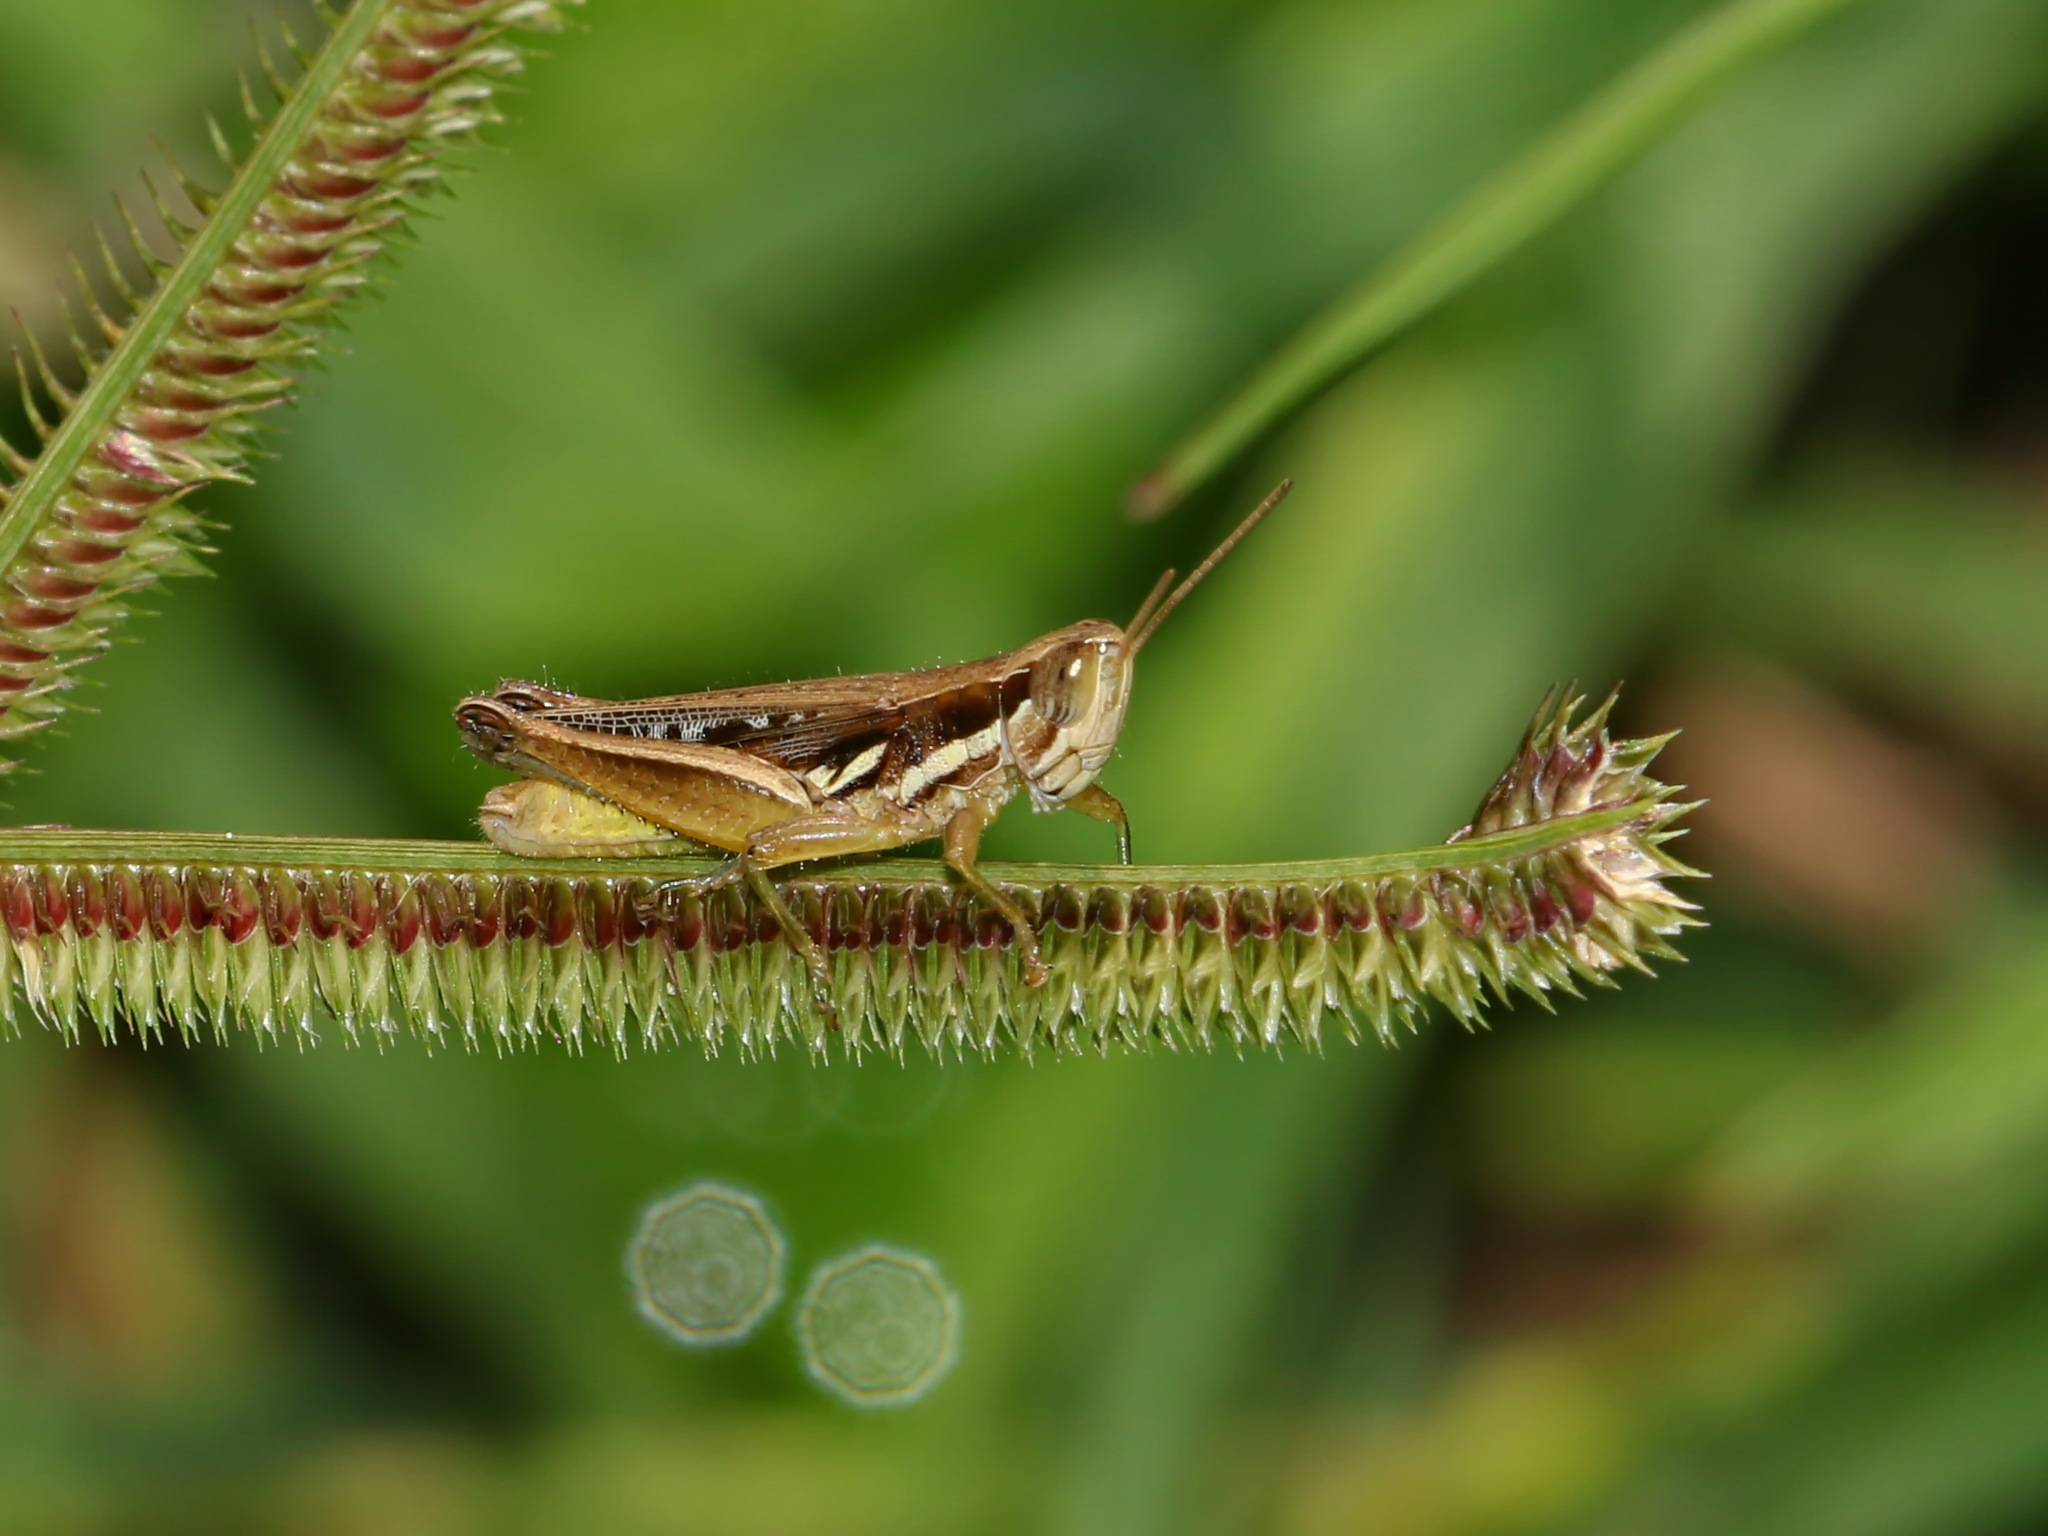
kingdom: Animalia
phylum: Arthropoda
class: Insecta
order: Orthoptera
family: Acrididae
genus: Spathosternum
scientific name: Spathosternum prasiniferum
